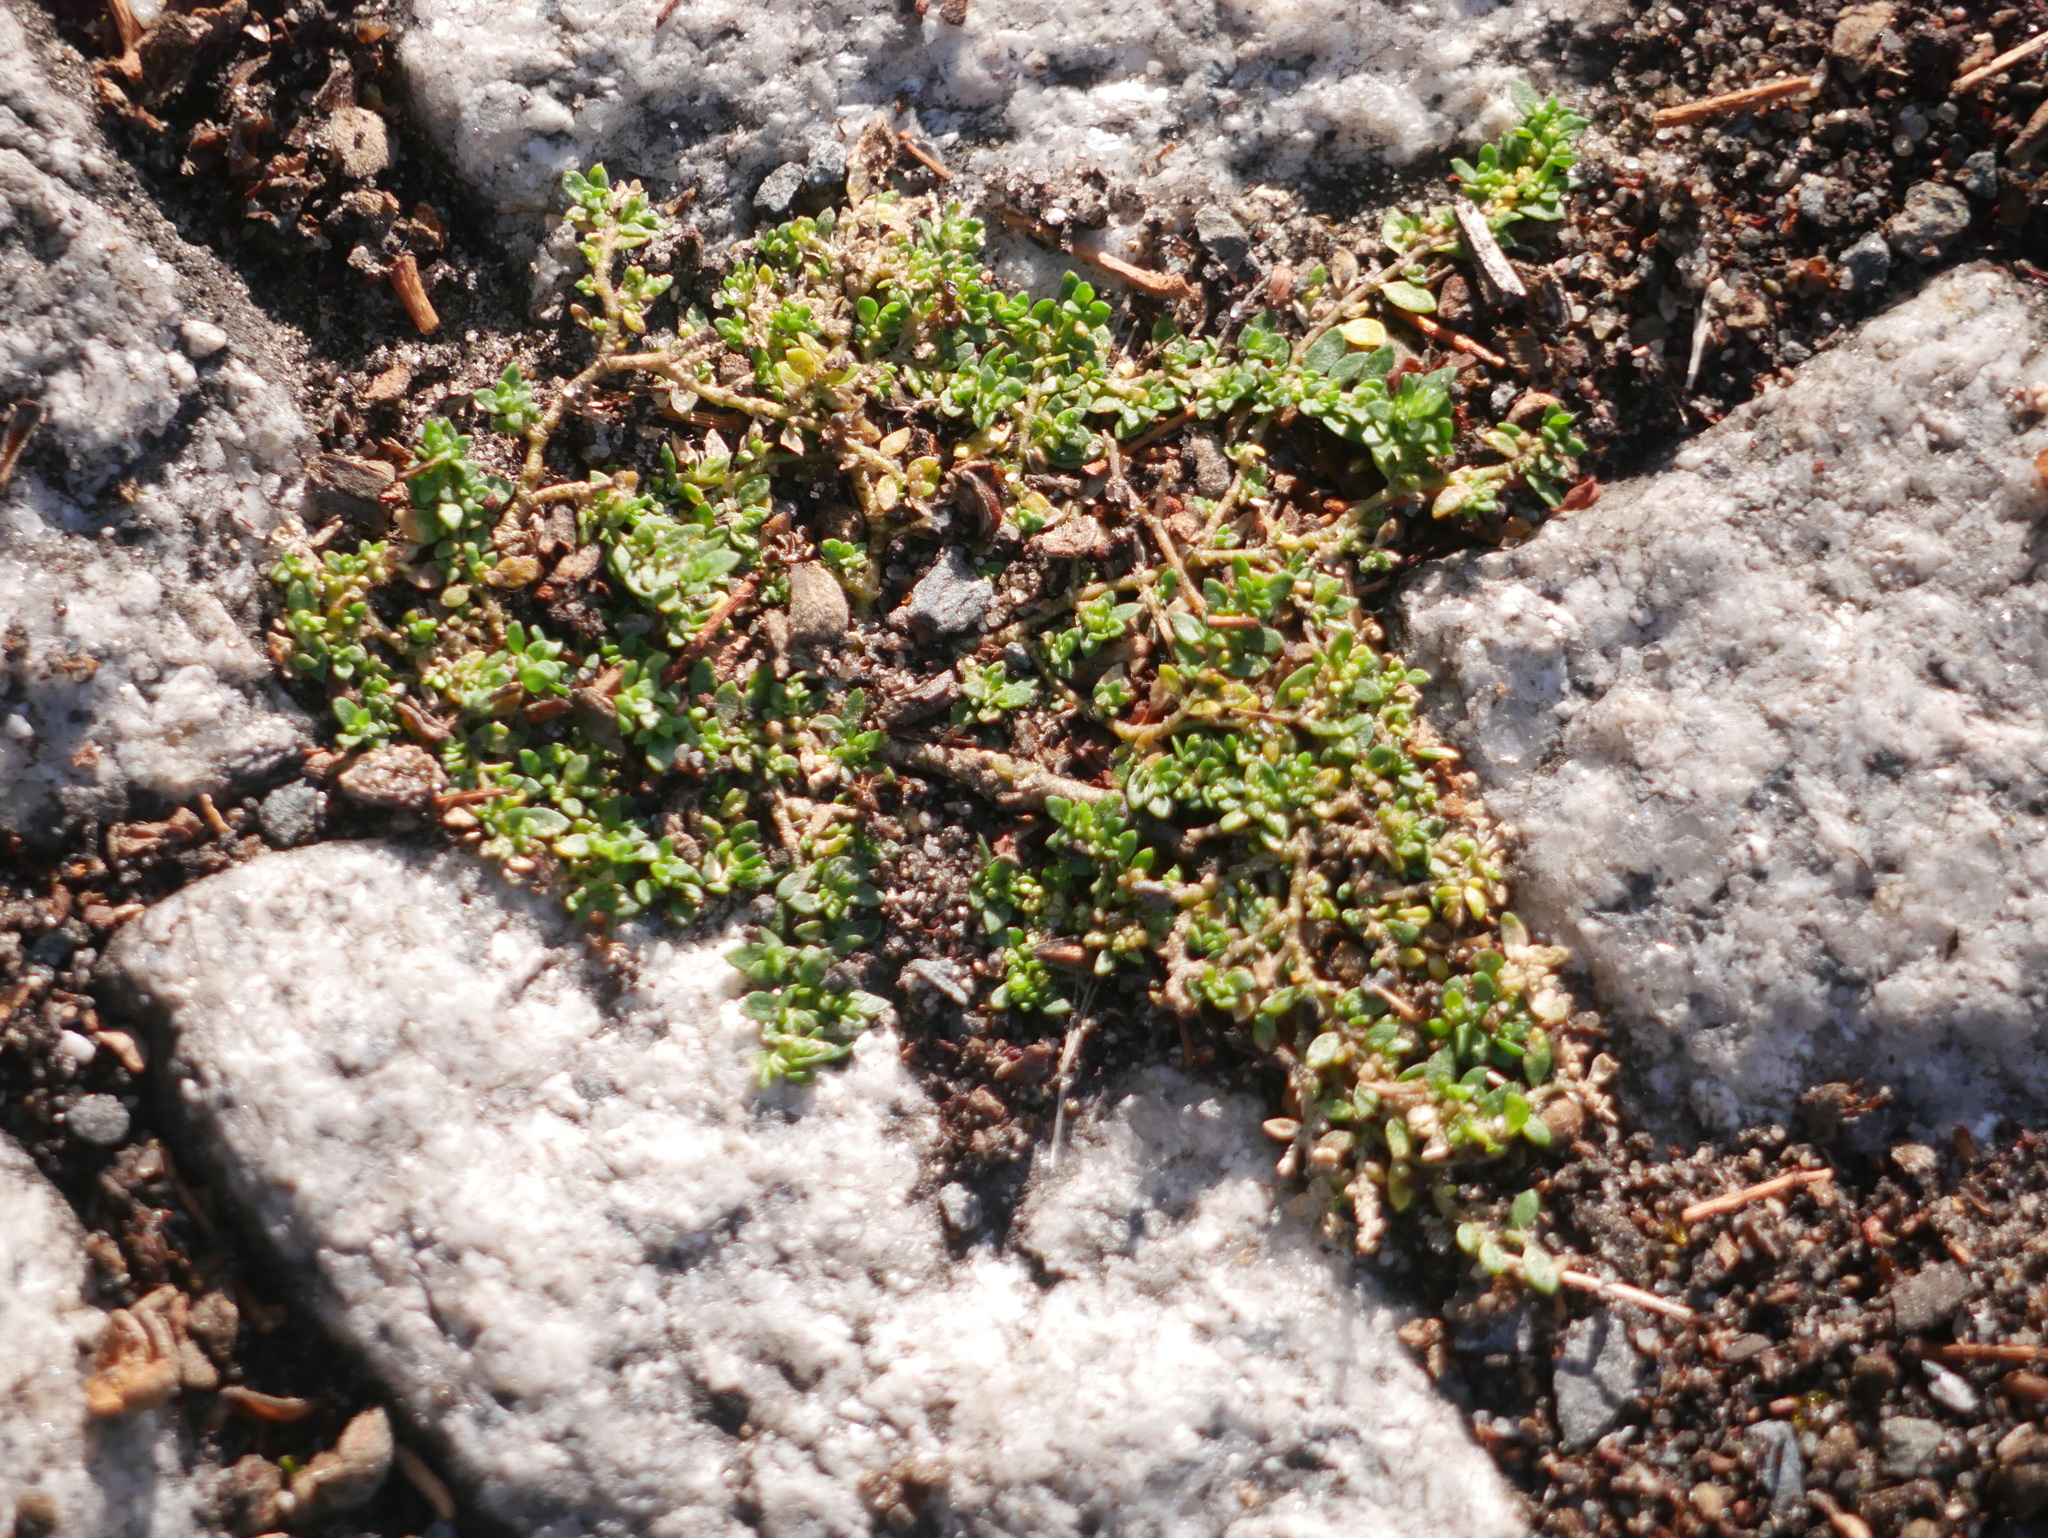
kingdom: Plantae
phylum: Tracheophyta
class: Magnoliopsida
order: Caryophyllales
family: Caryophyllaceae
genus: Herniaria
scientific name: Herniaria glabra
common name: Smooth rupturewort
